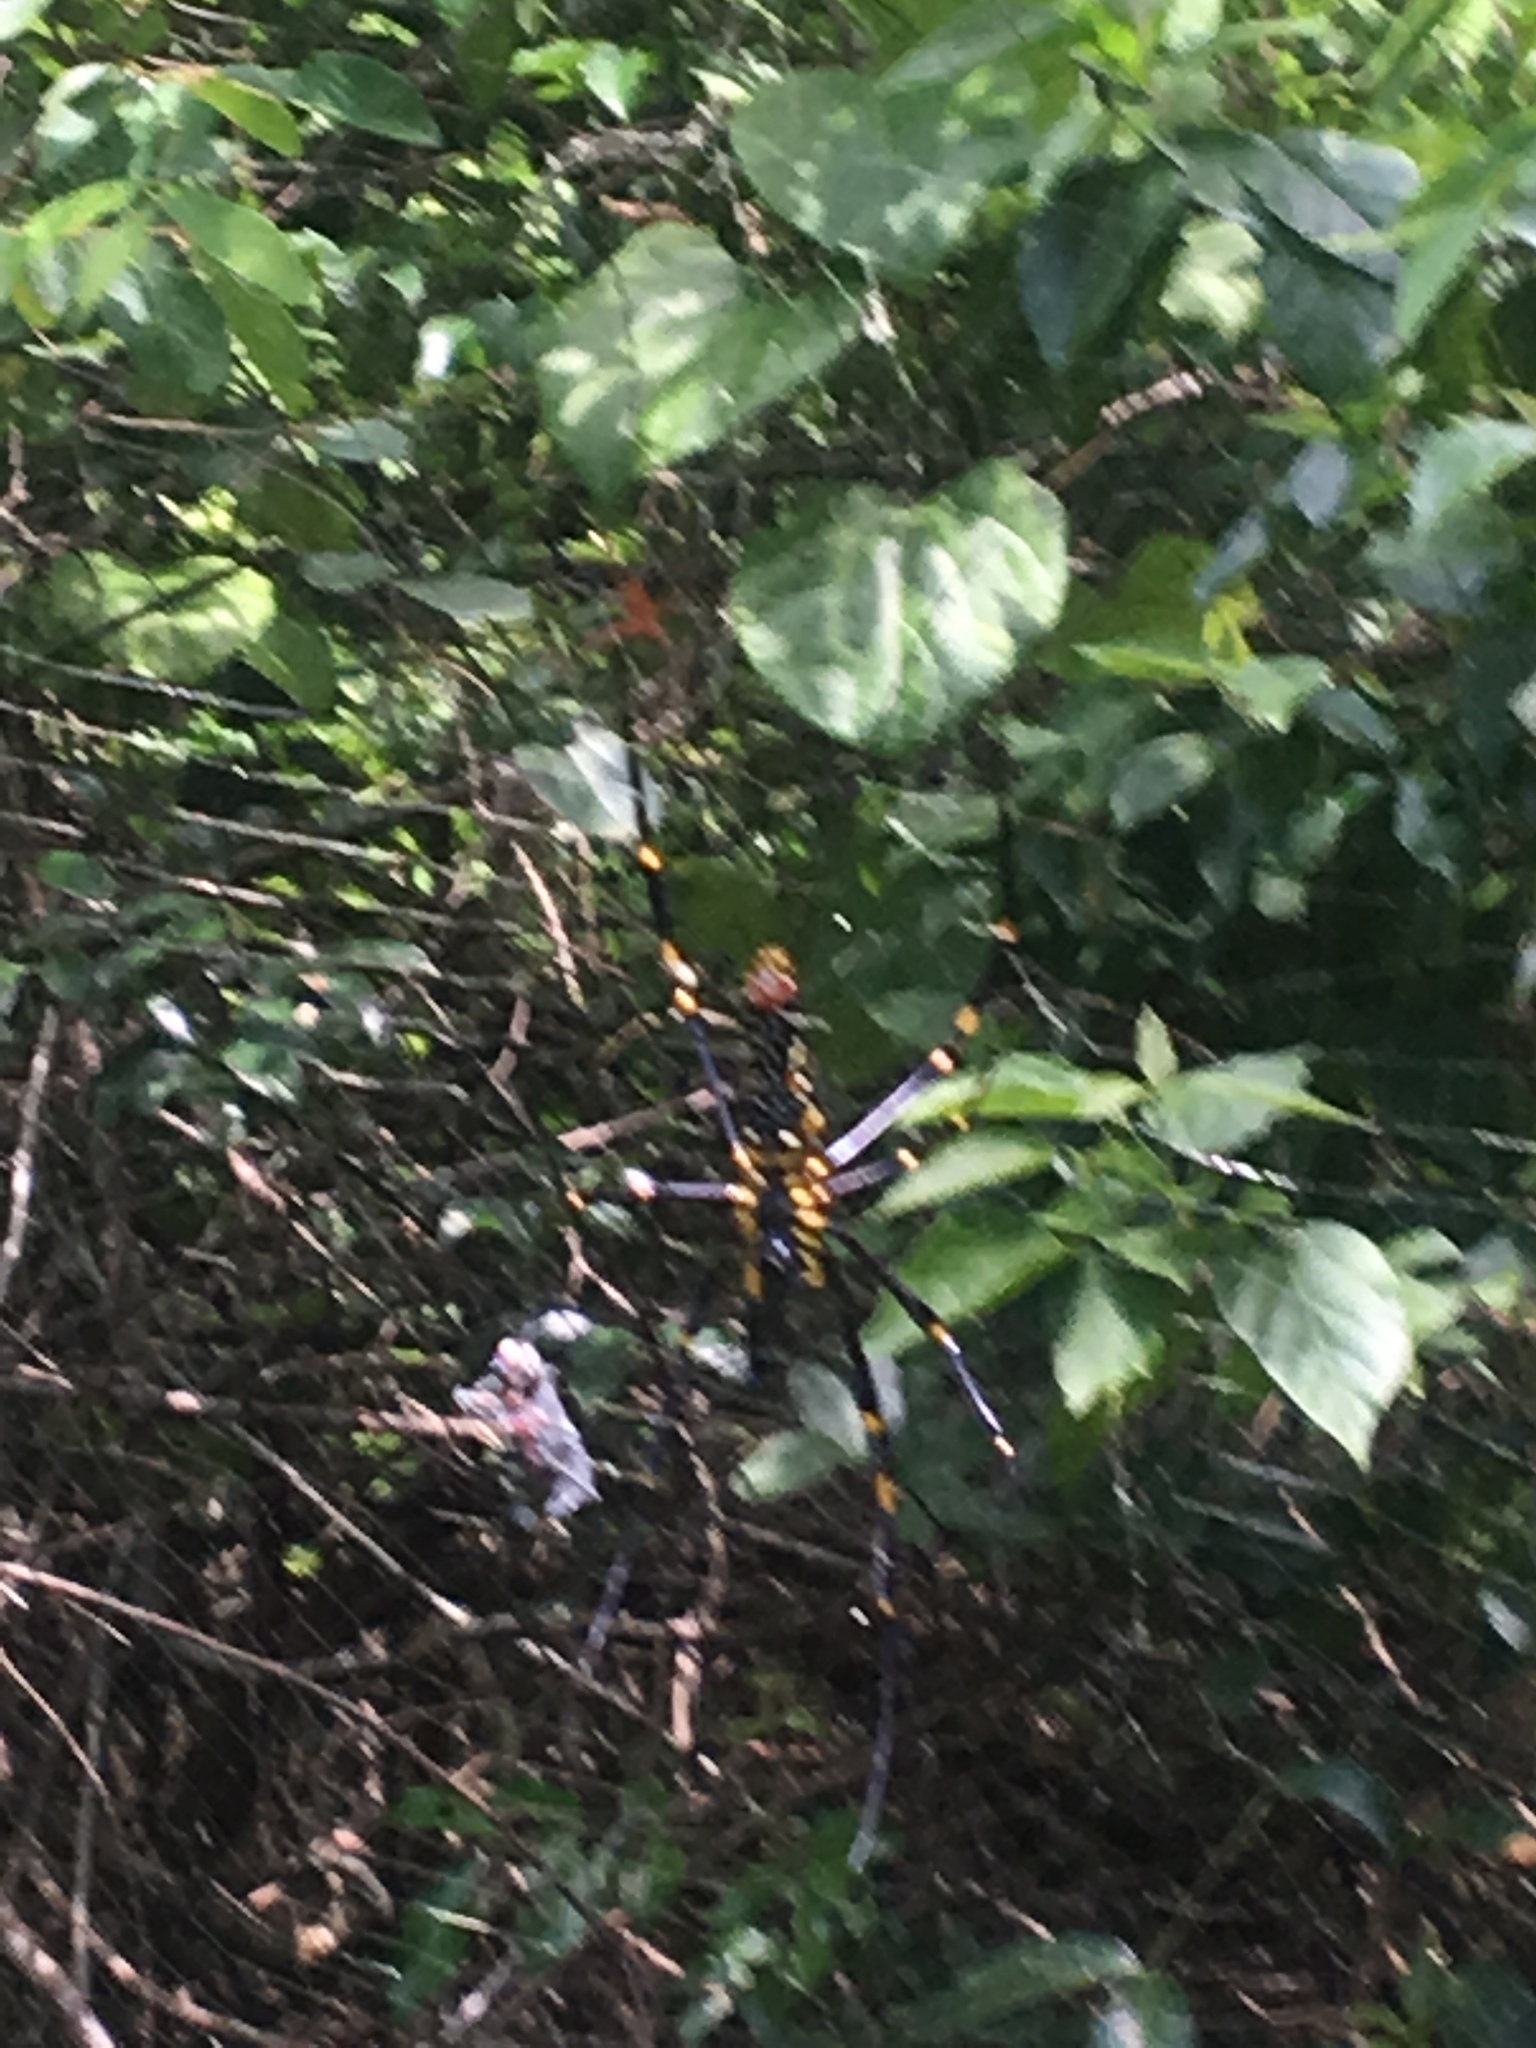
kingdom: Animalia
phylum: Arthropoda
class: Arachnida
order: Araneae
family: Araneidae
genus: Nephila
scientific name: Nephila pilipes
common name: Giant golden orb weaver
